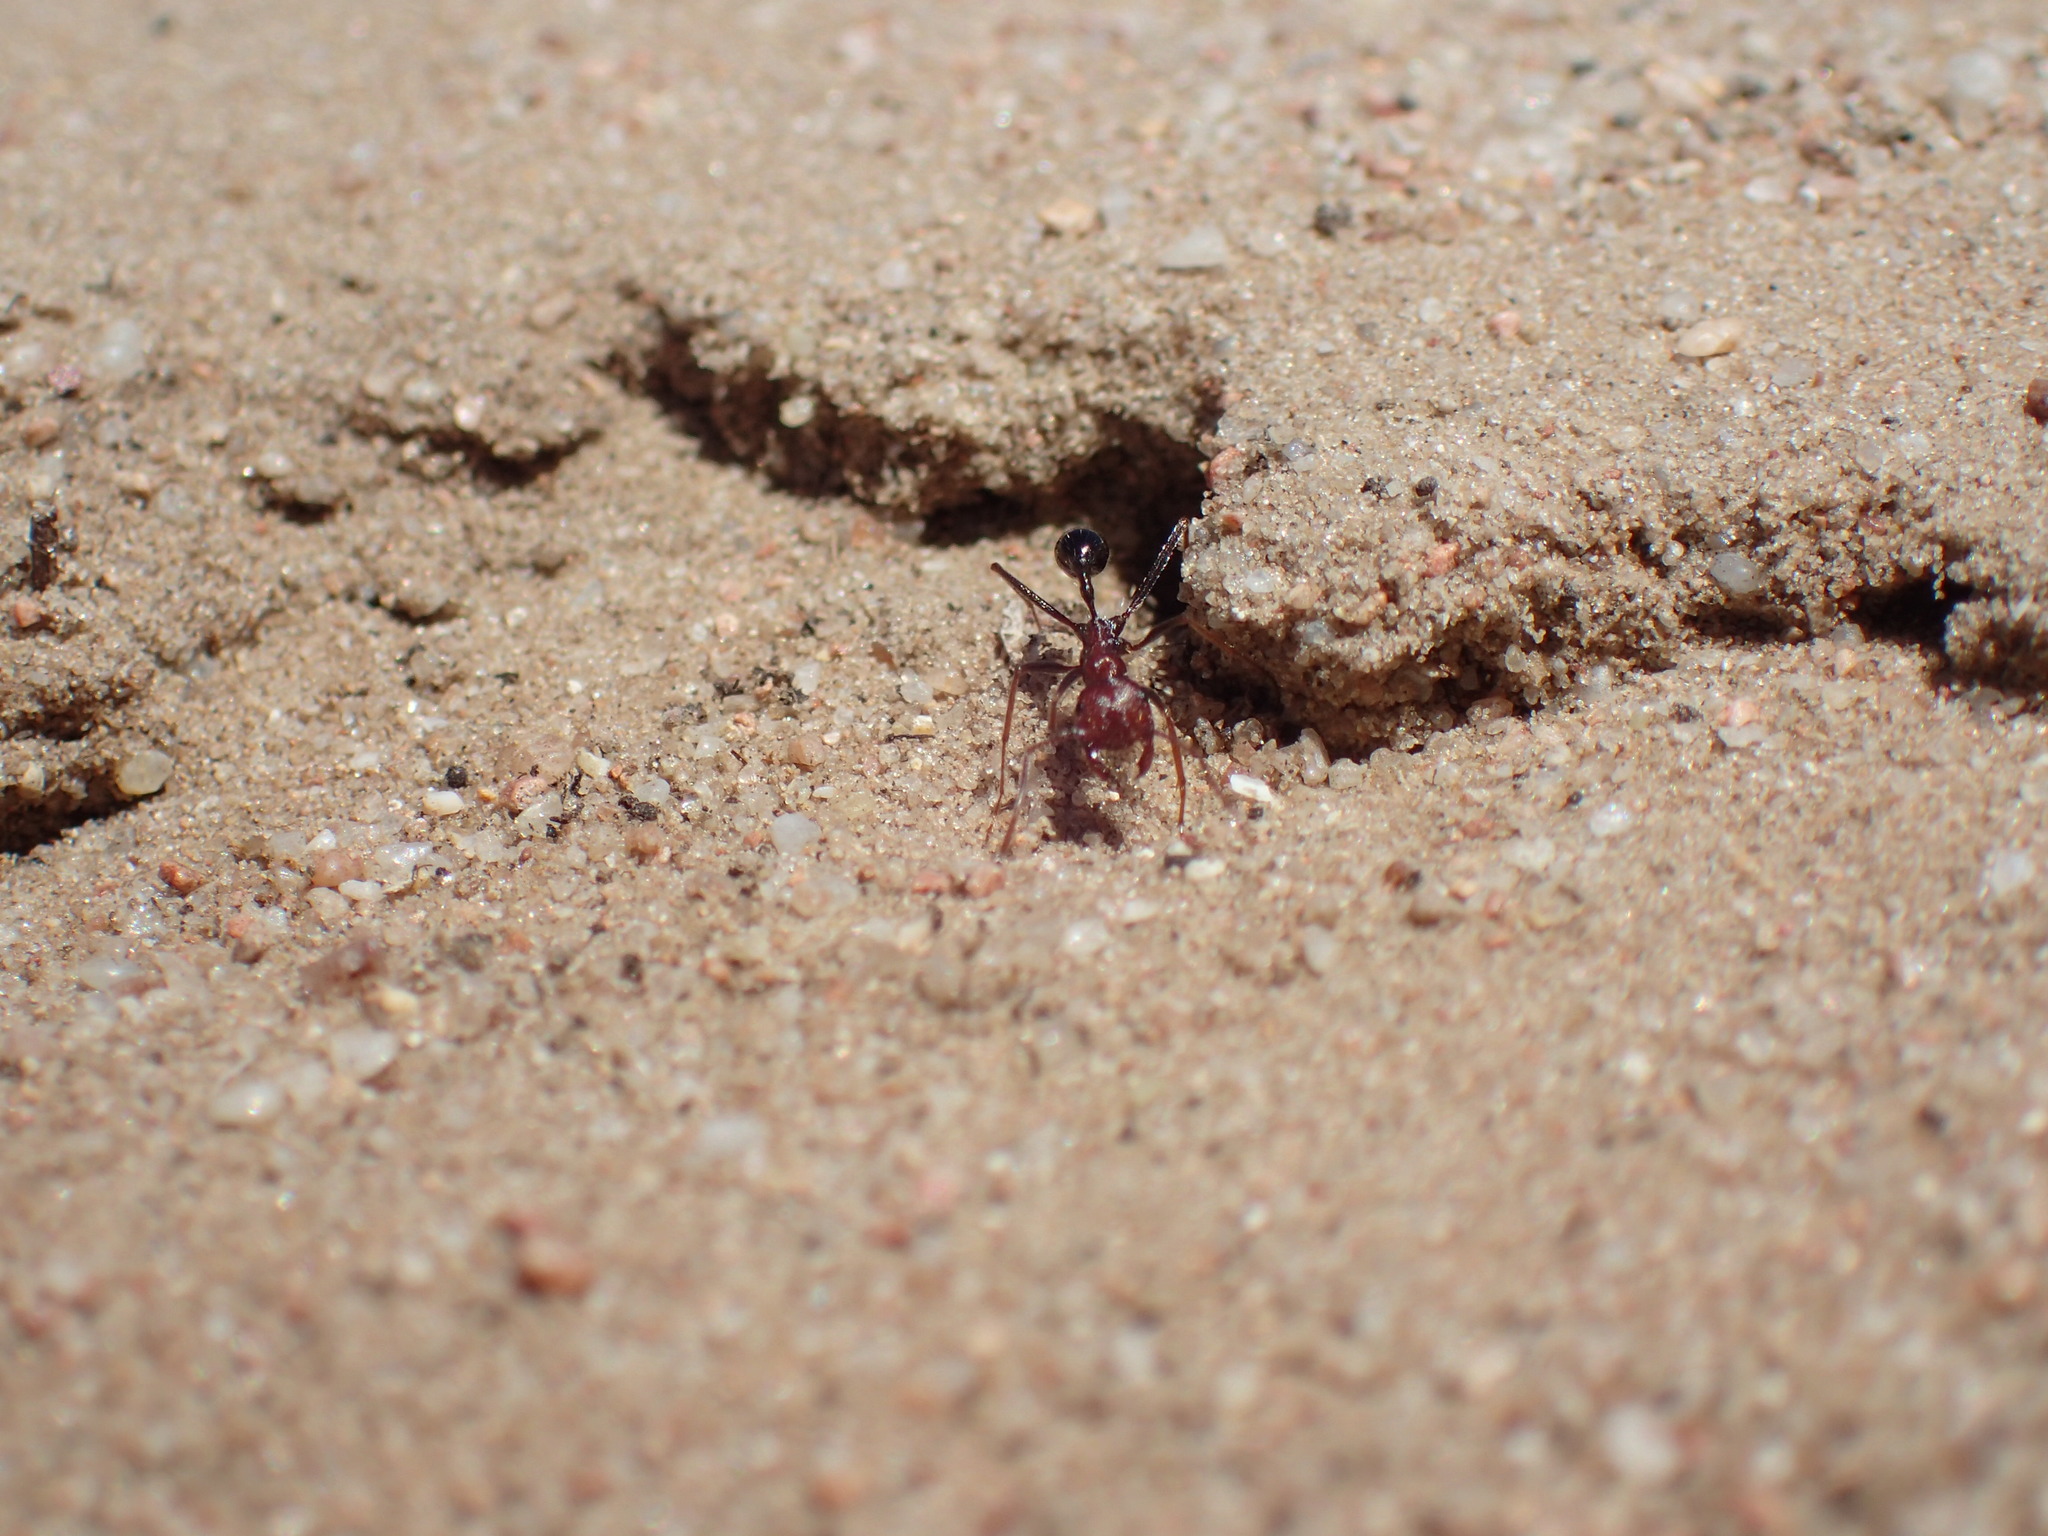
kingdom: Animalia
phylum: Arthropoda
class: Insecta
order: Hymenoptera
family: Formicidae
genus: Ocymyrmex
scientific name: Ocymyrmex barbiger
